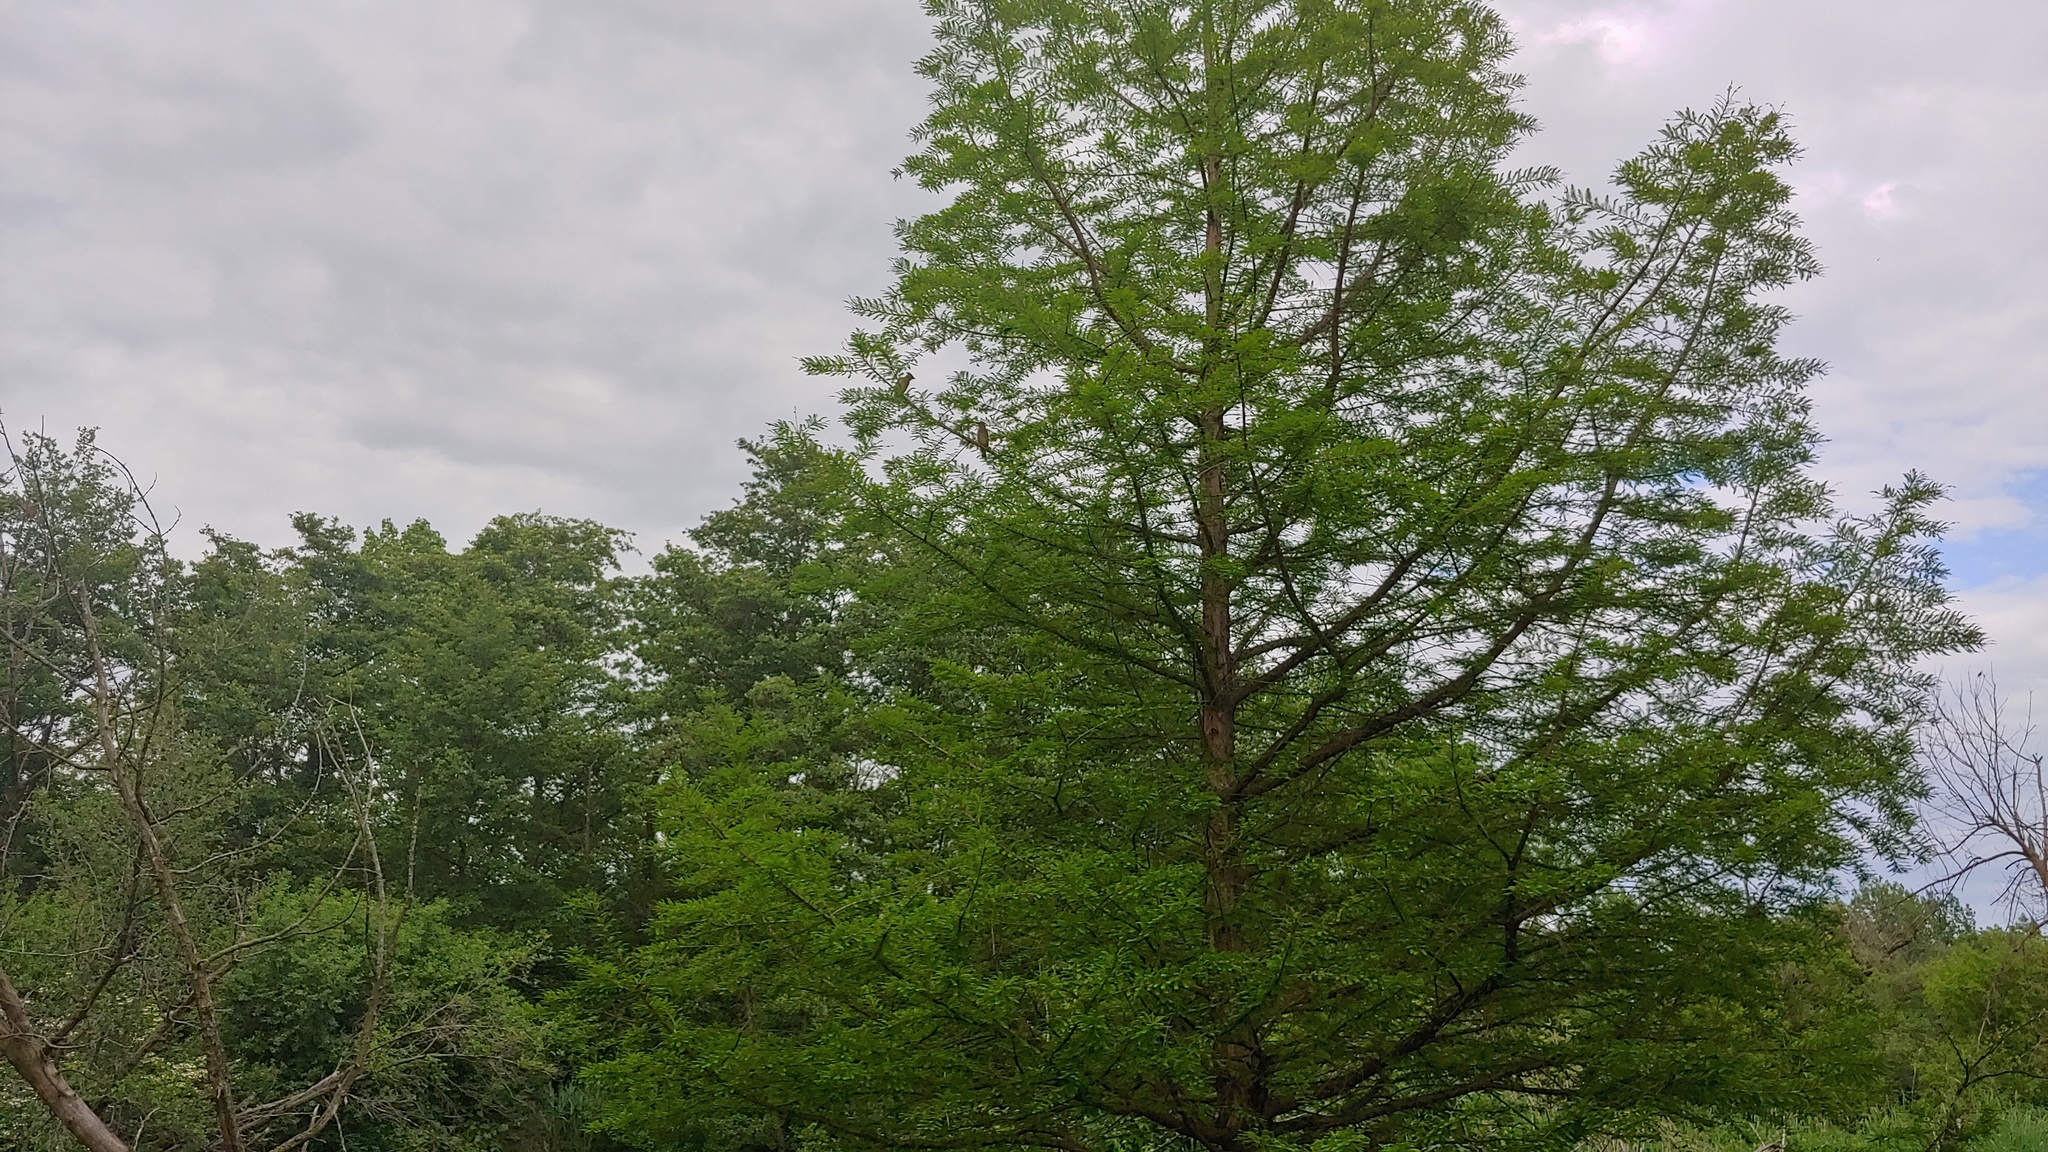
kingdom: Animalia
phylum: Chordata
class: Aves
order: Passeriformes
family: Bombycillidae
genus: Bombycilla
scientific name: Bombycilla cedrorum
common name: Cedar waxwing
